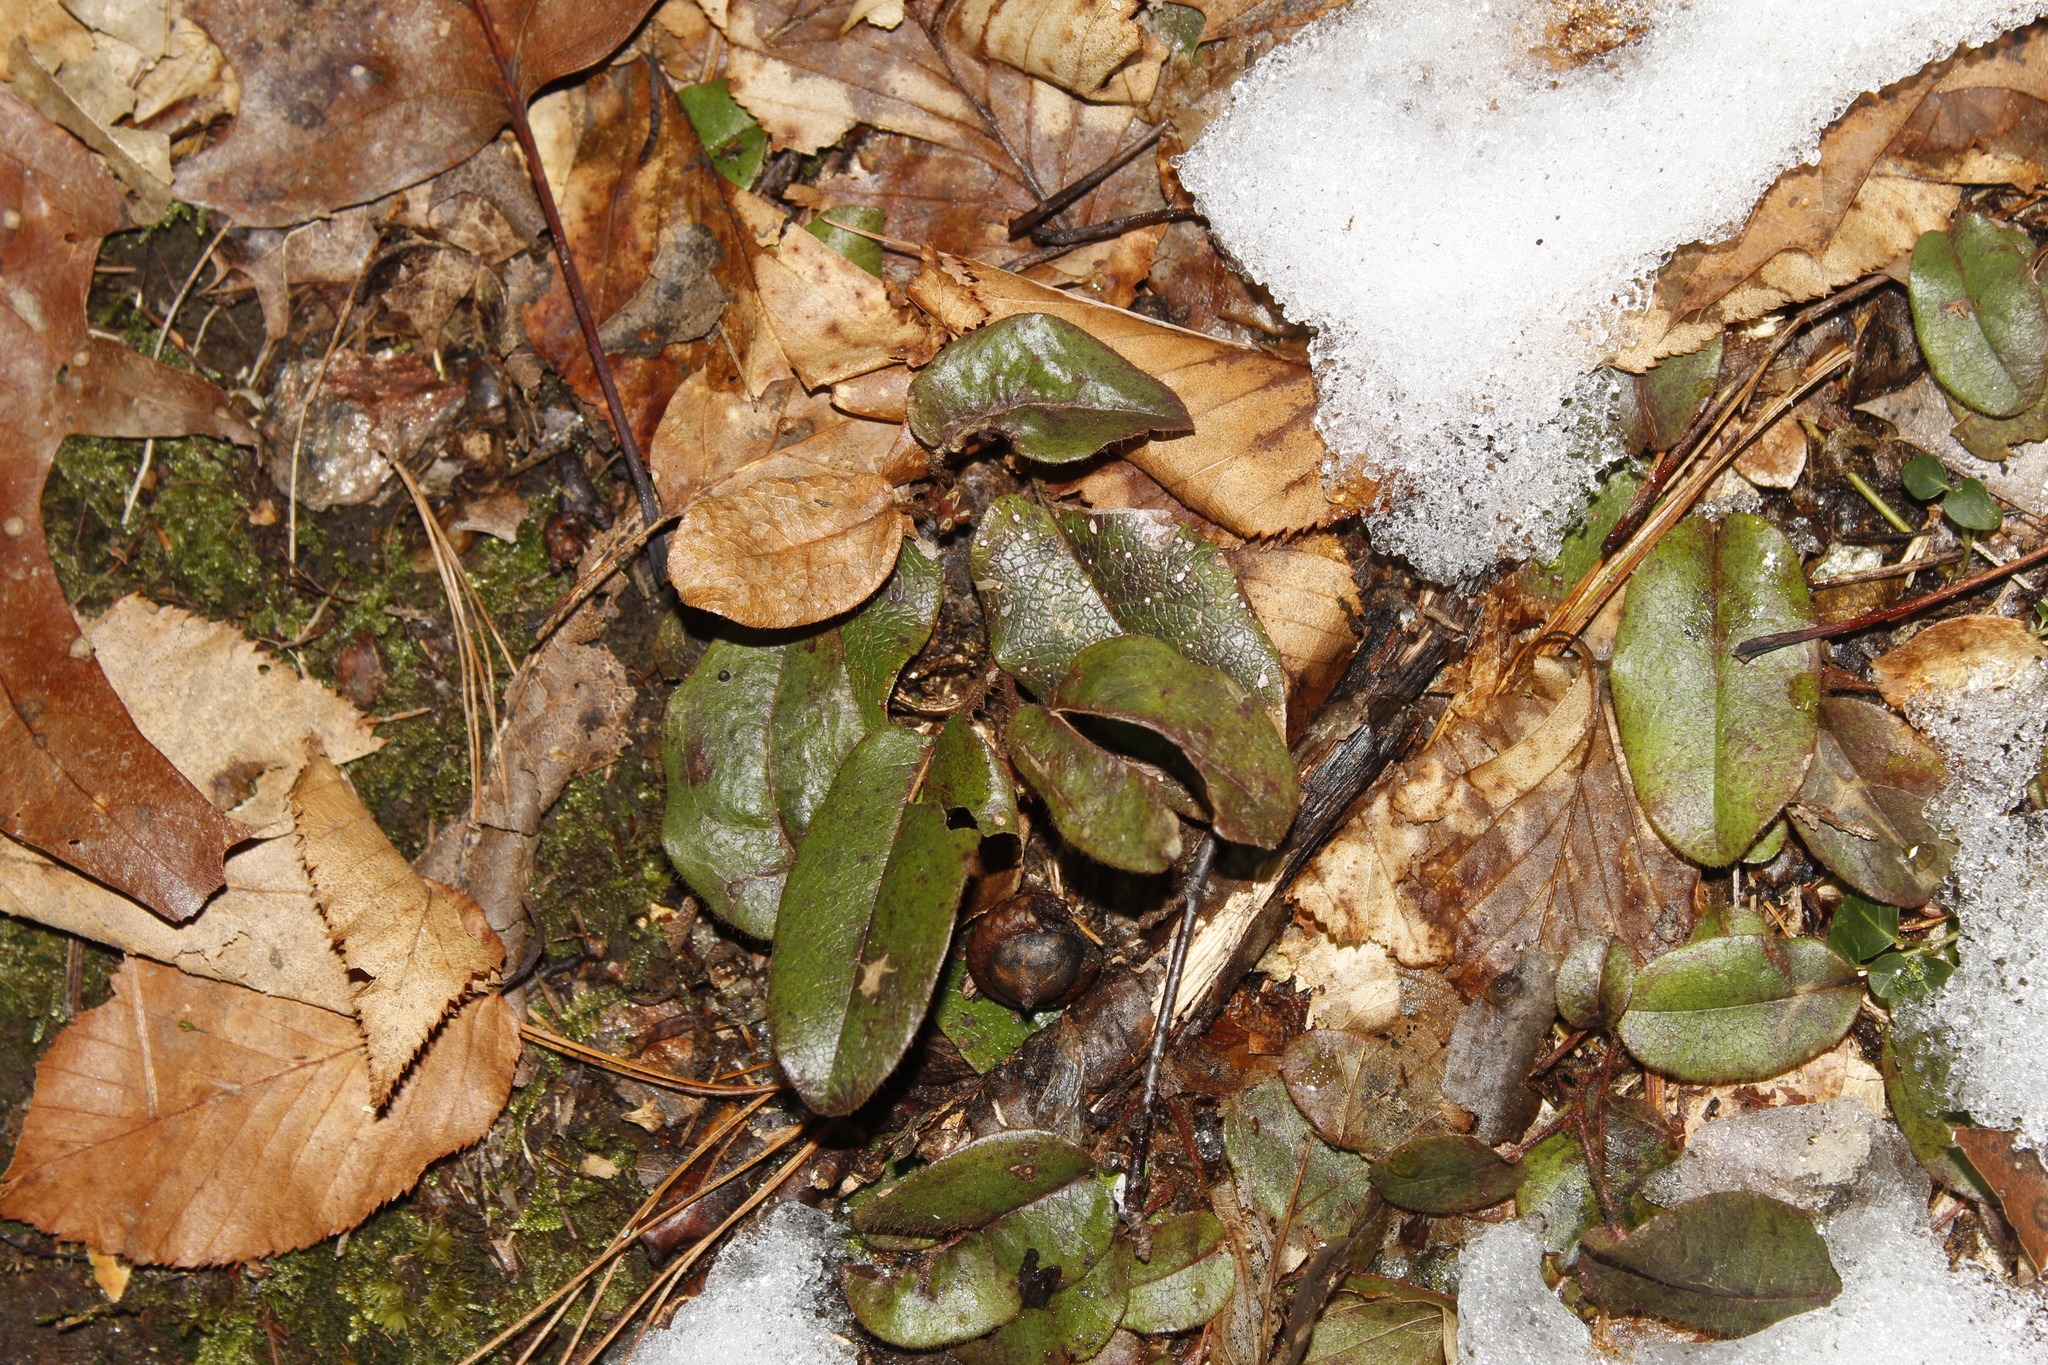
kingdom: Plantae
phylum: Tracheophyta
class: Magnoliopsida
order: Ericales
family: Ericaceae
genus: Epigaea
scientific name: Epigaea repens
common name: Gravelroot
